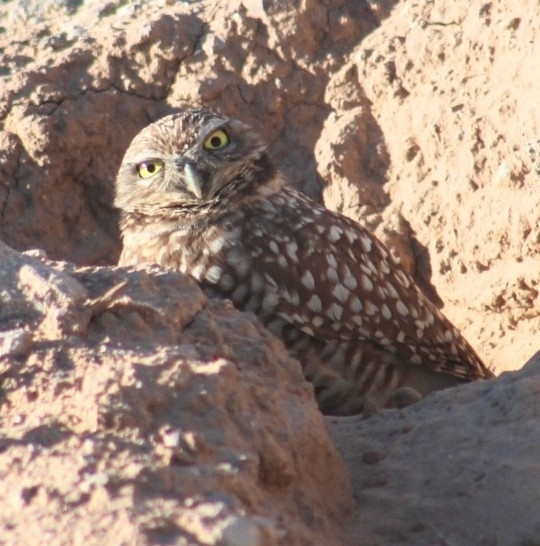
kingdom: Animalia
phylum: Chordata
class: Aves
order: Strigiformes
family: Strigidae
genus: Athene
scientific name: Athene cunicularia
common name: Burrowing owl
